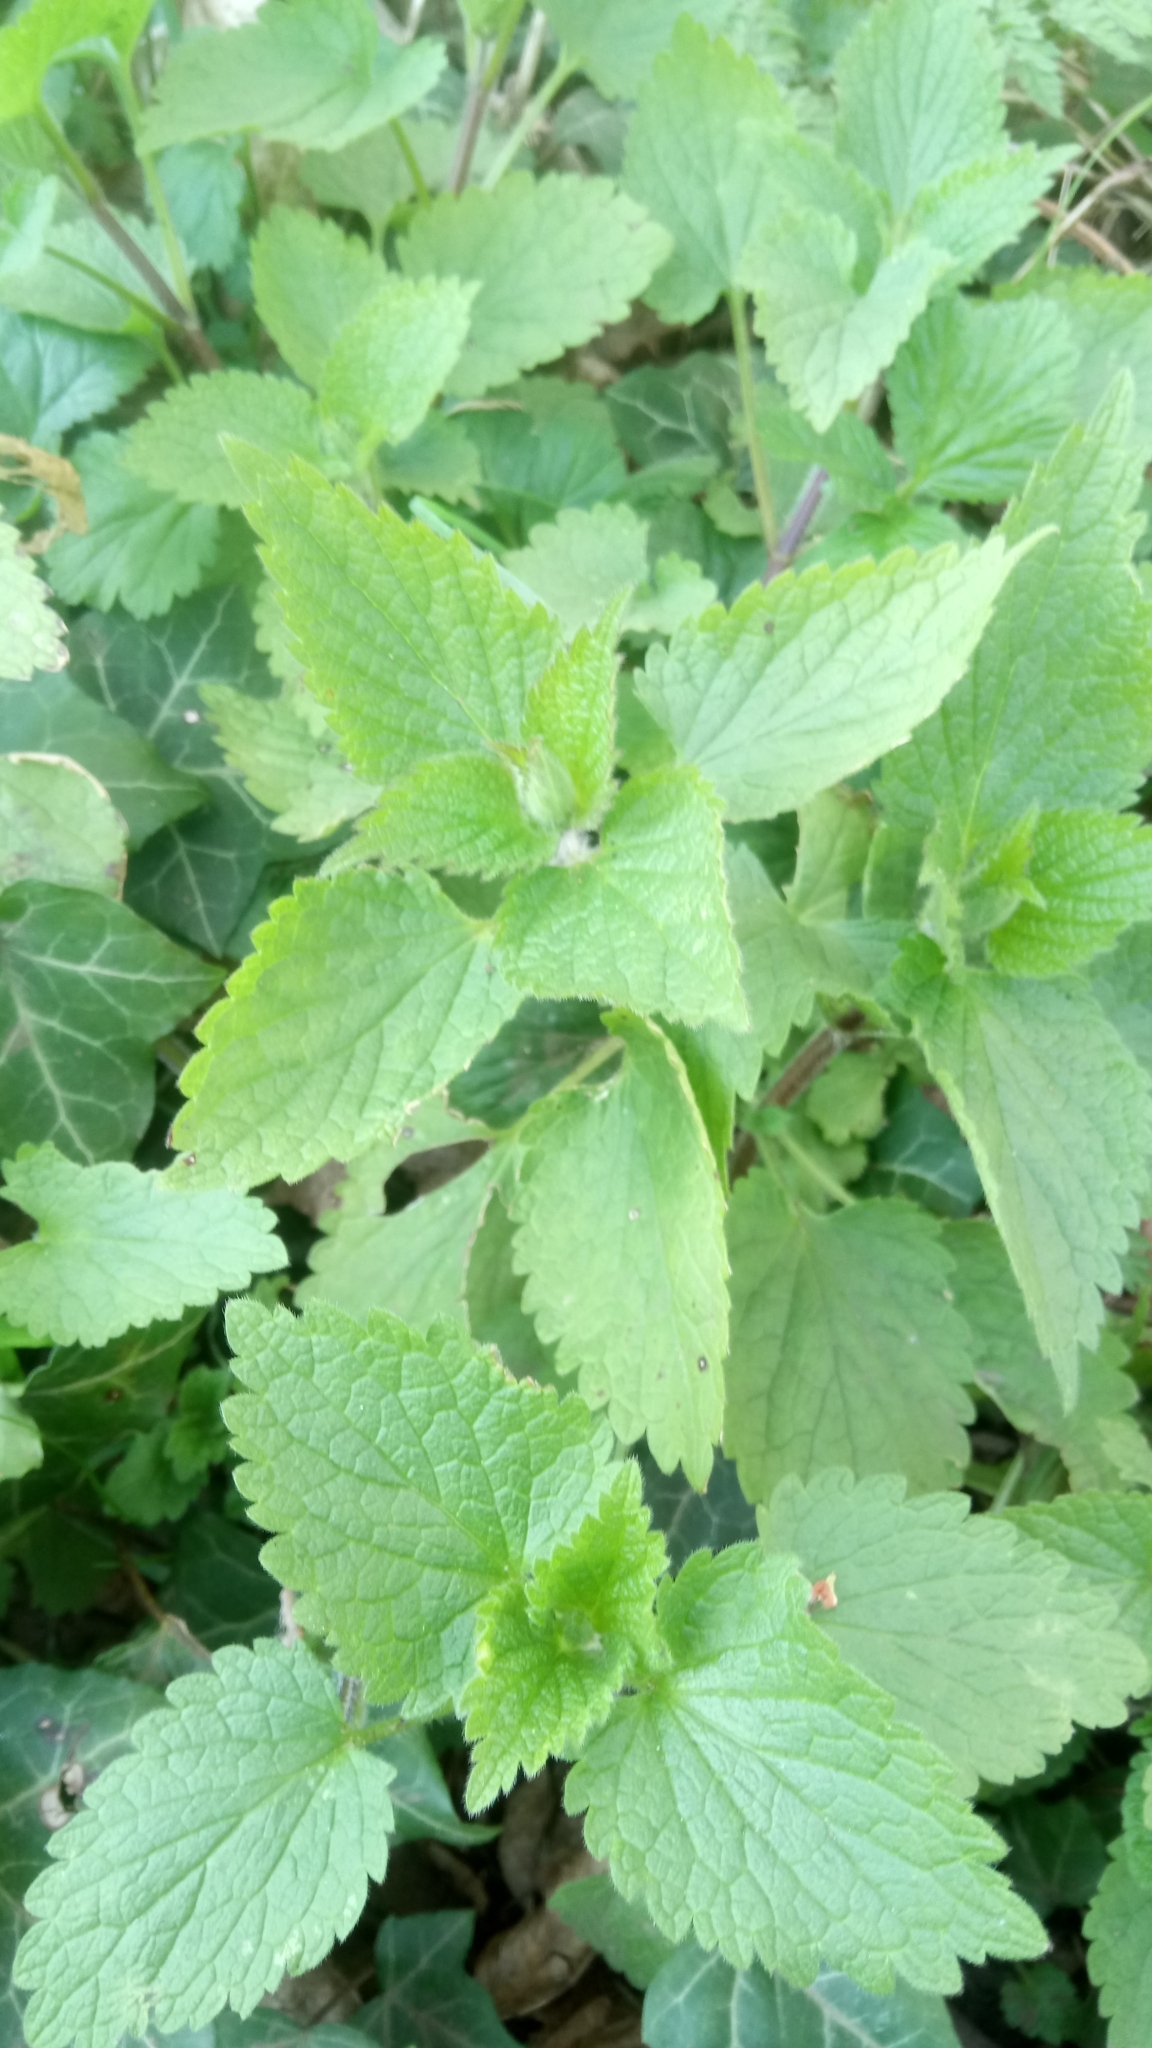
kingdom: Plantae
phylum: Tracheophyta
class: Magnoliopsida
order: Lamiales
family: Lamiaceae
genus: Lamium
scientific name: Lamium album
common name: White dead-nettle
